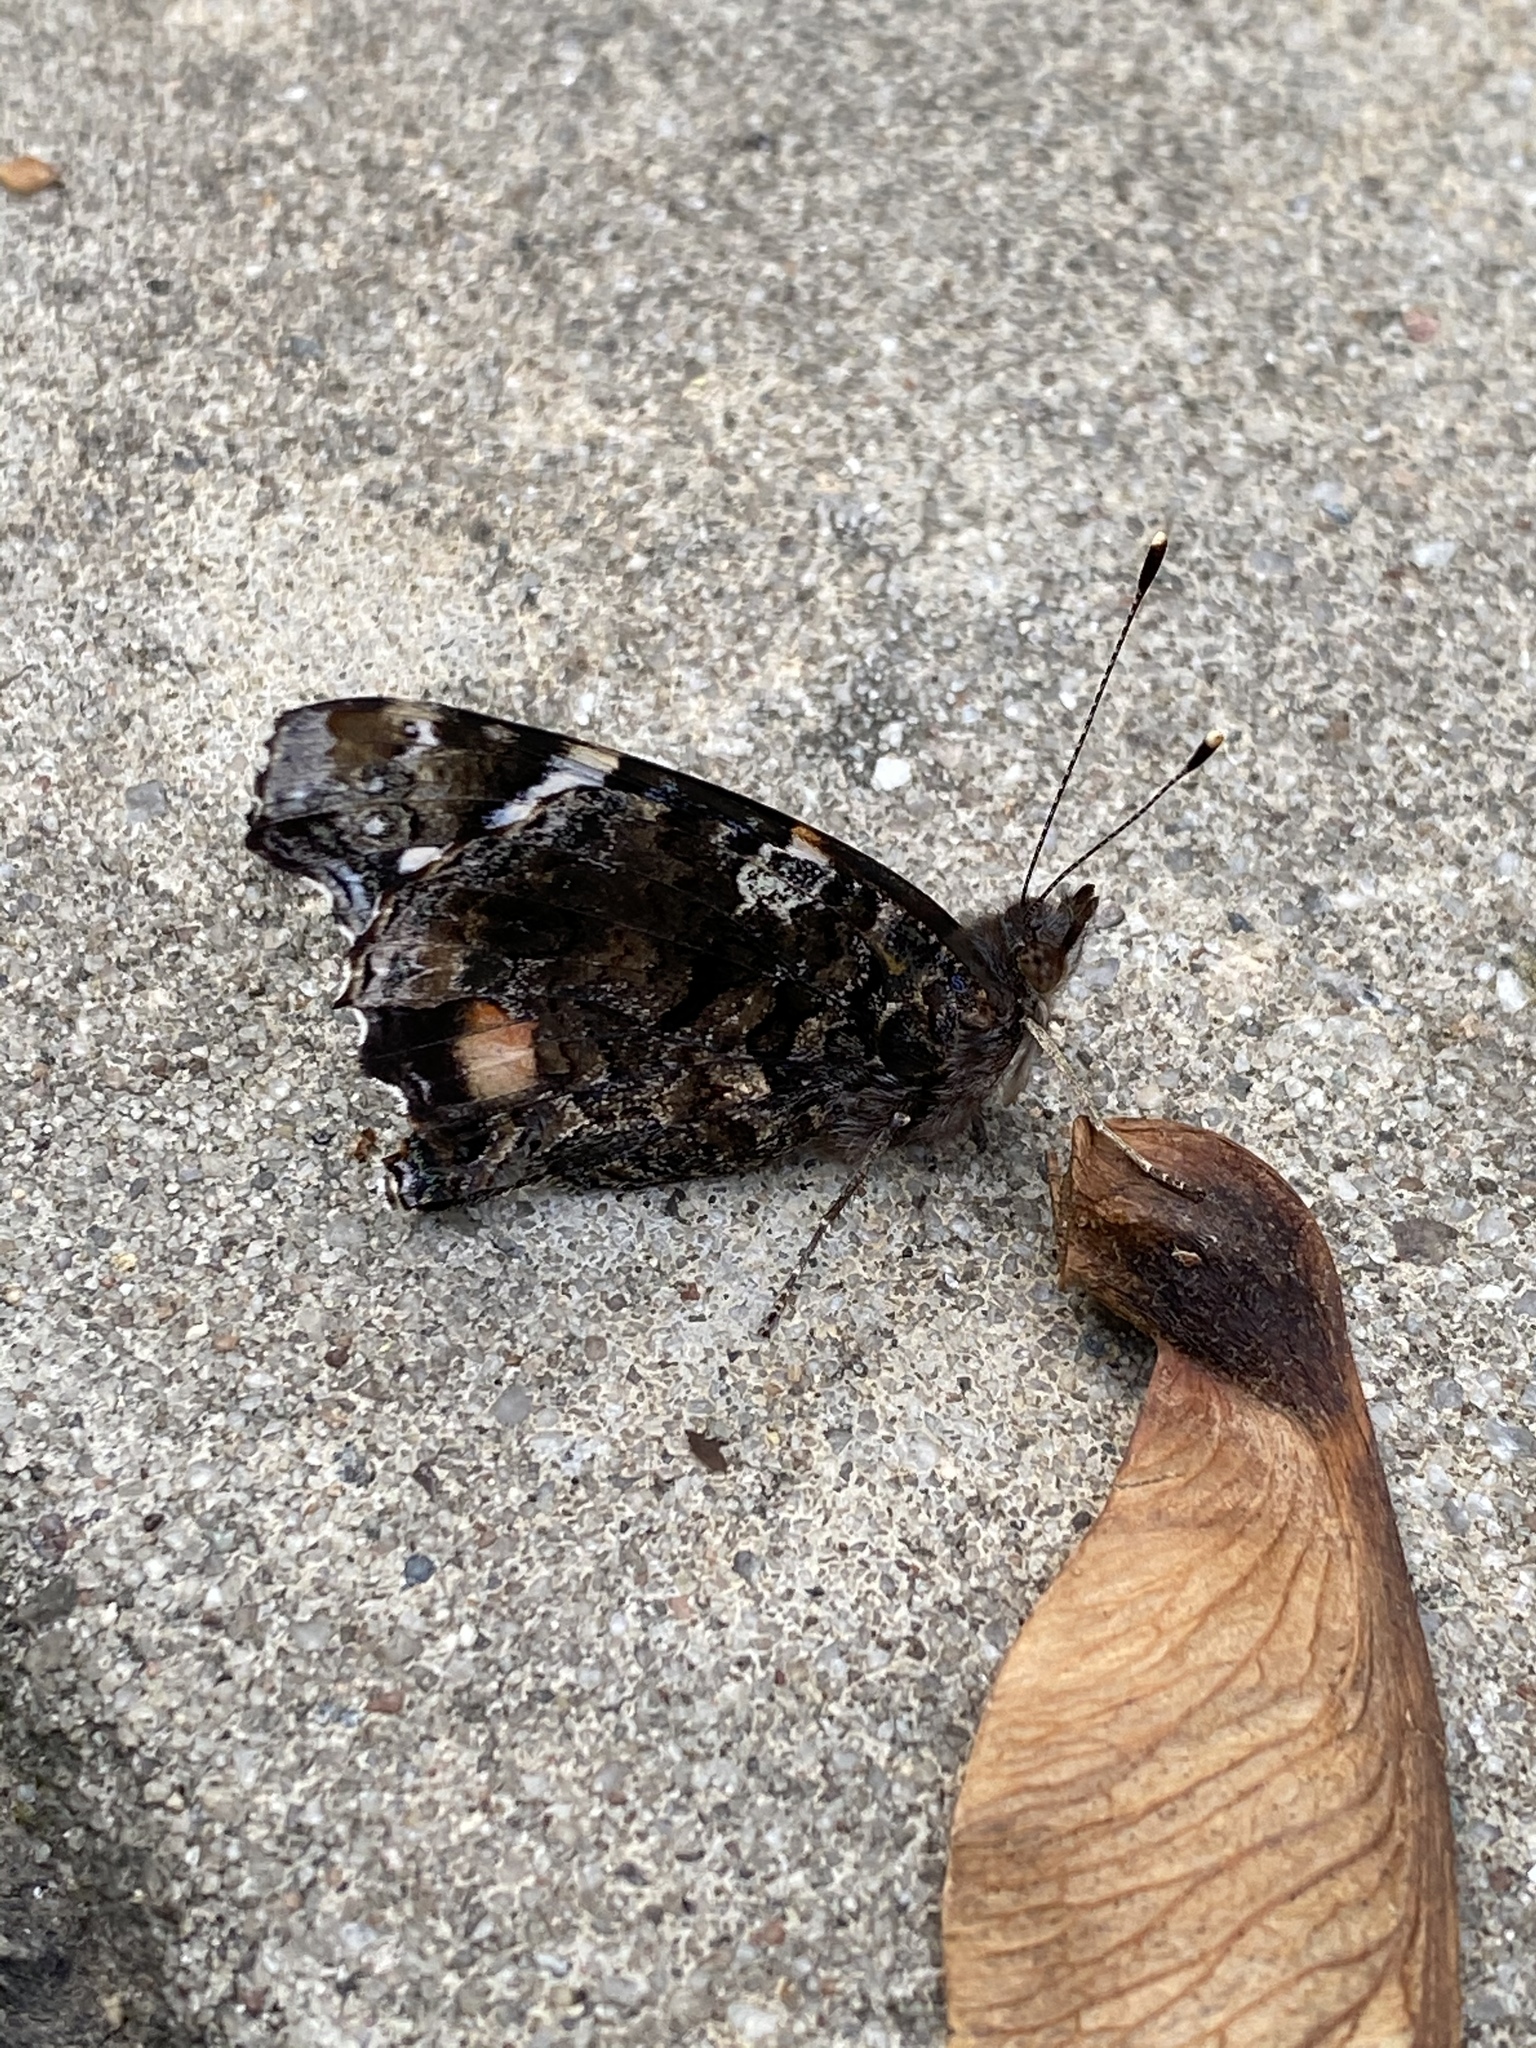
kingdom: Animalia
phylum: Arthropoda
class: Insecta
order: Lepidoptera
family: Nymphalidae
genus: Vanessa
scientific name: Vanessa atalanta
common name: Red admiral
